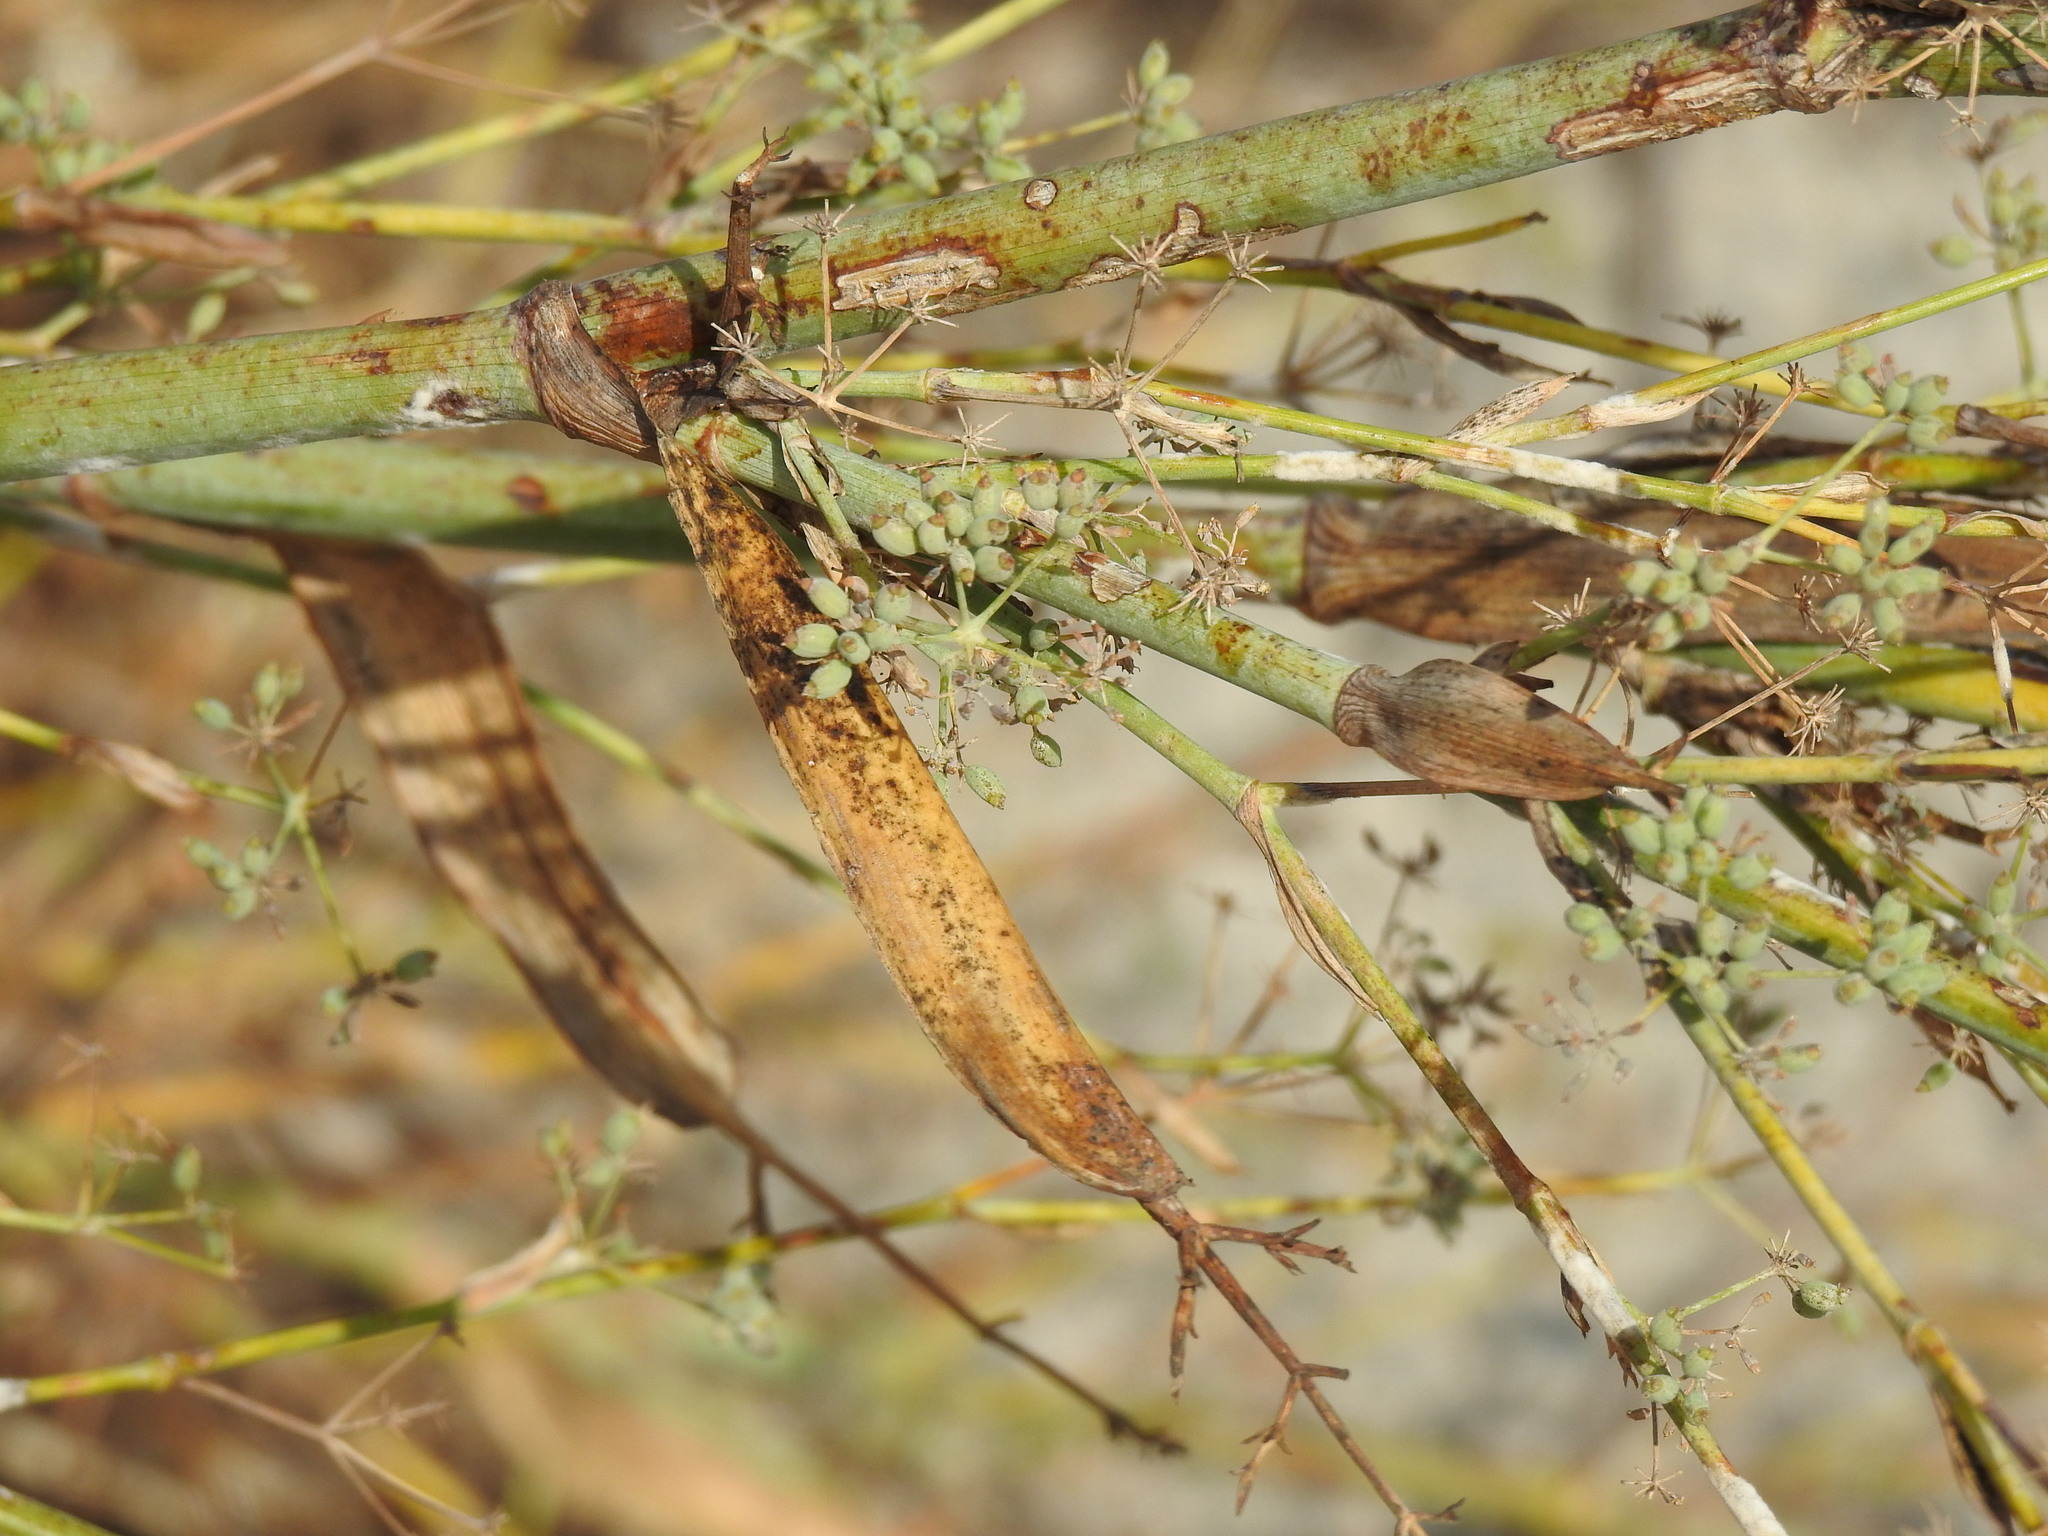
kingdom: Plantae
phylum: Tracheophyta
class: Magnoliopsida
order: Apiales
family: Apiaceae
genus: Foeniculum
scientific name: Foeniculum vulgare
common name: Fennel
